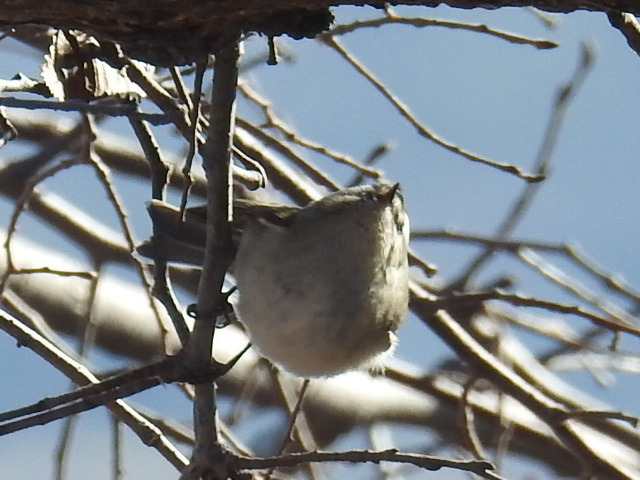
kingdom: Animalia
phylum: Chordata
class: Aves
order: Passeriformes
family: Regulidae
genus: Regulus
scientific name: Regulus satrapa
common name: Golden-crowned kinglet
